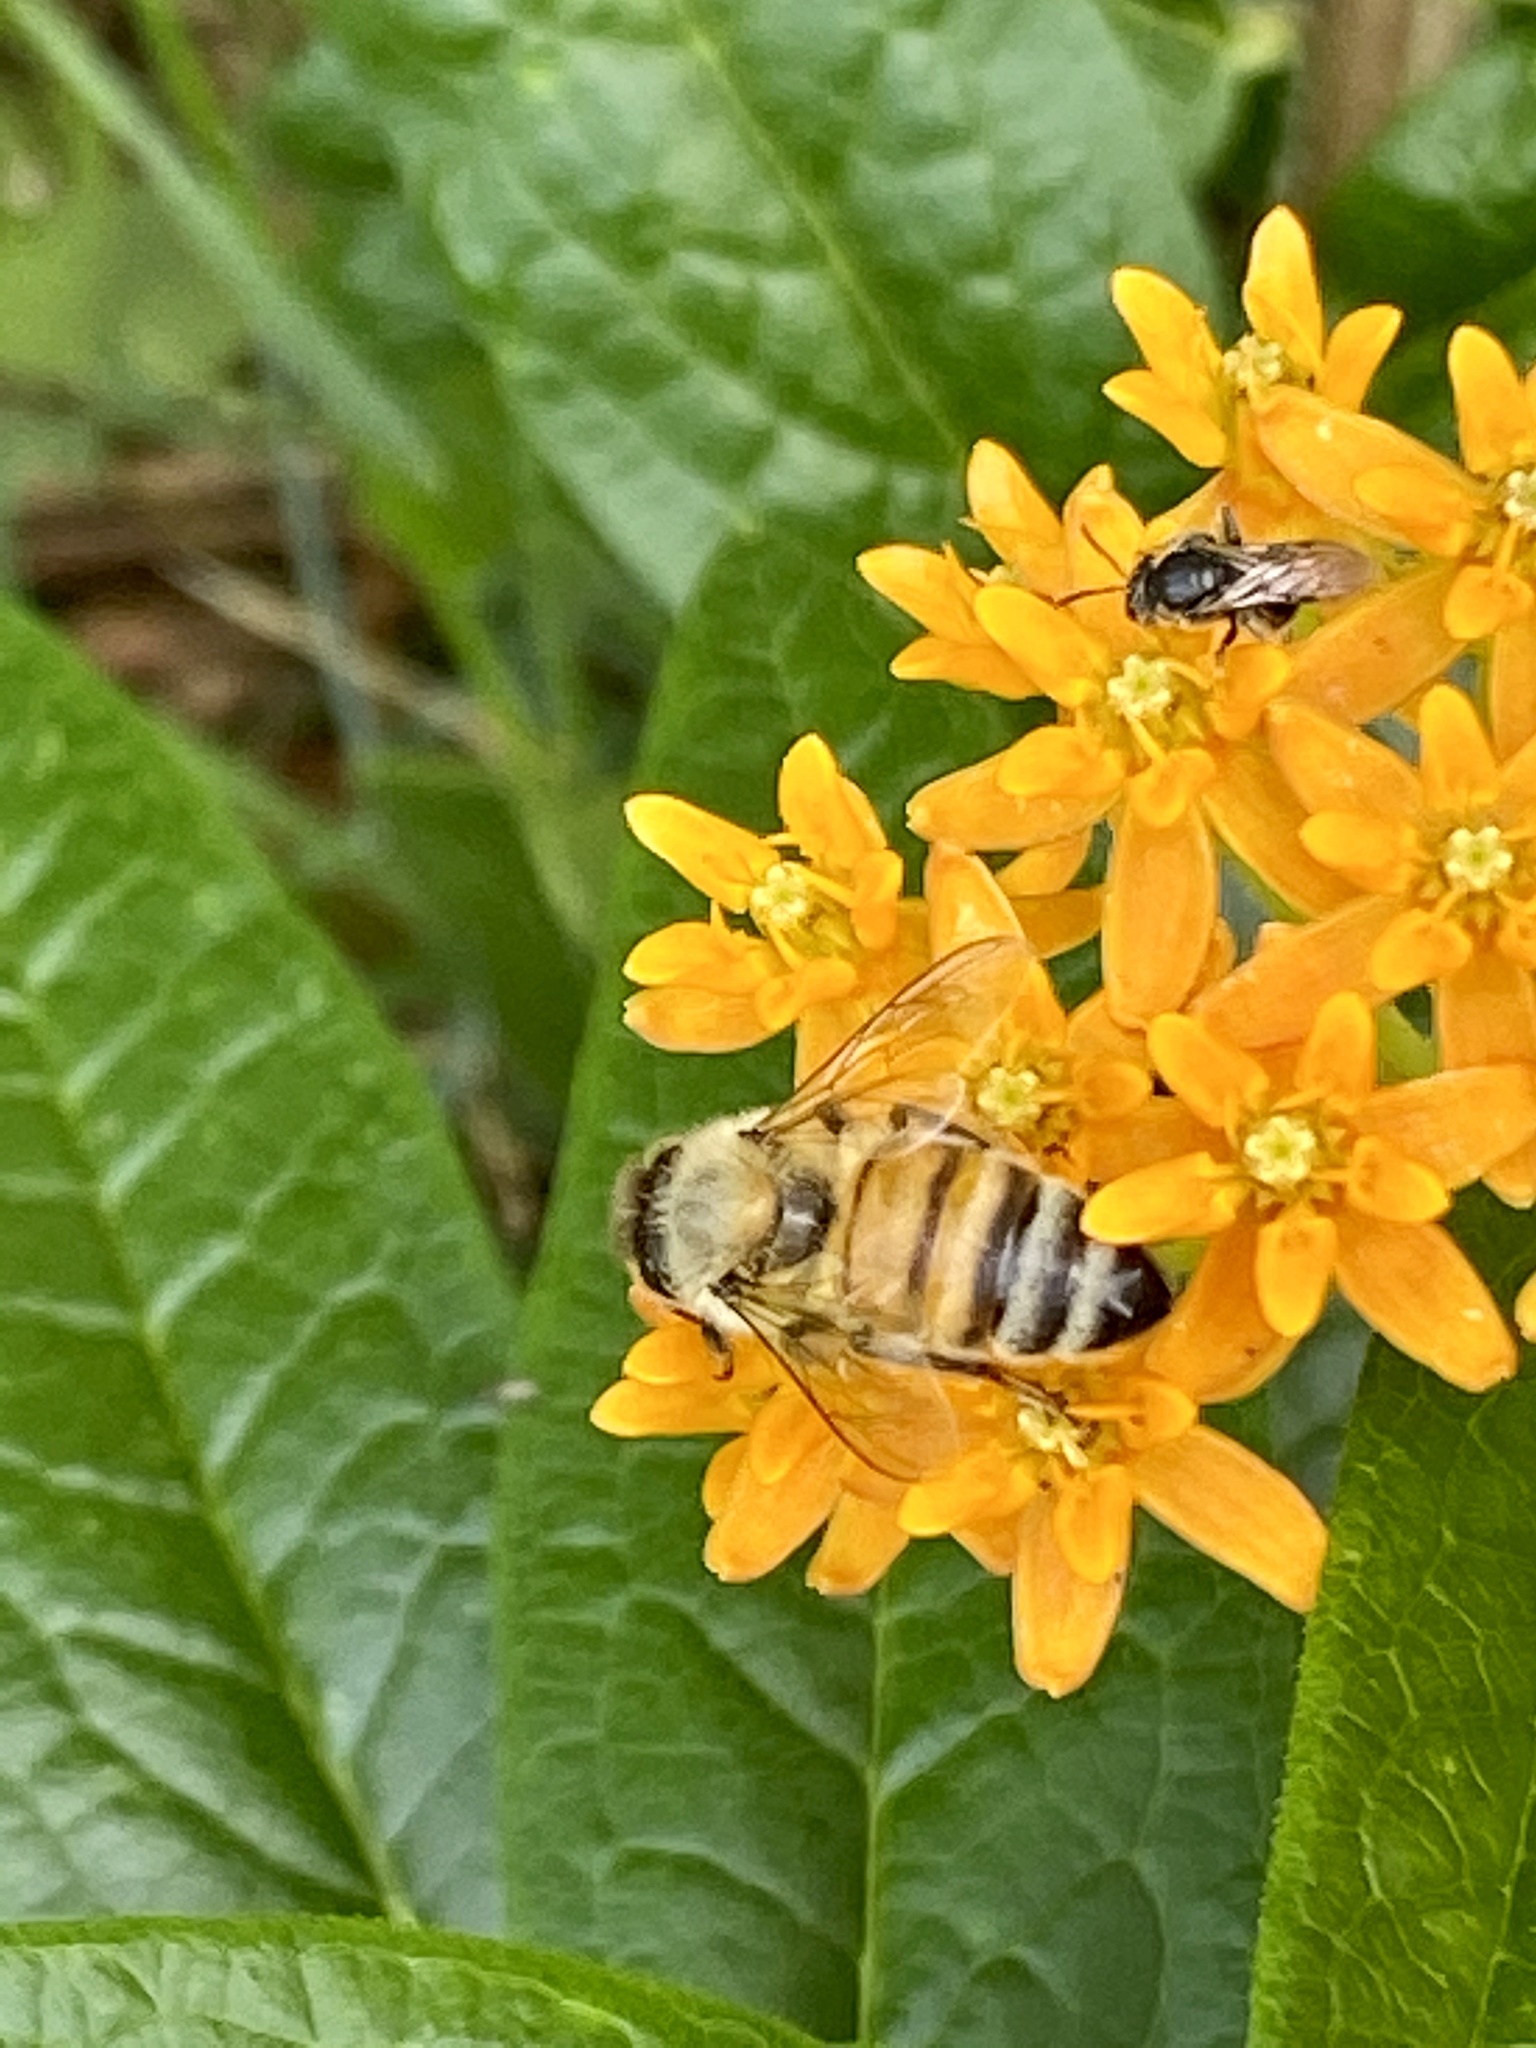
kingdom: Animalia
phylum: Arthropoda
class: Insecta
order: Hymenoptera
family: Apidae
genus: Apis
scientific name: Apis mellifera
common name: Honey bee
